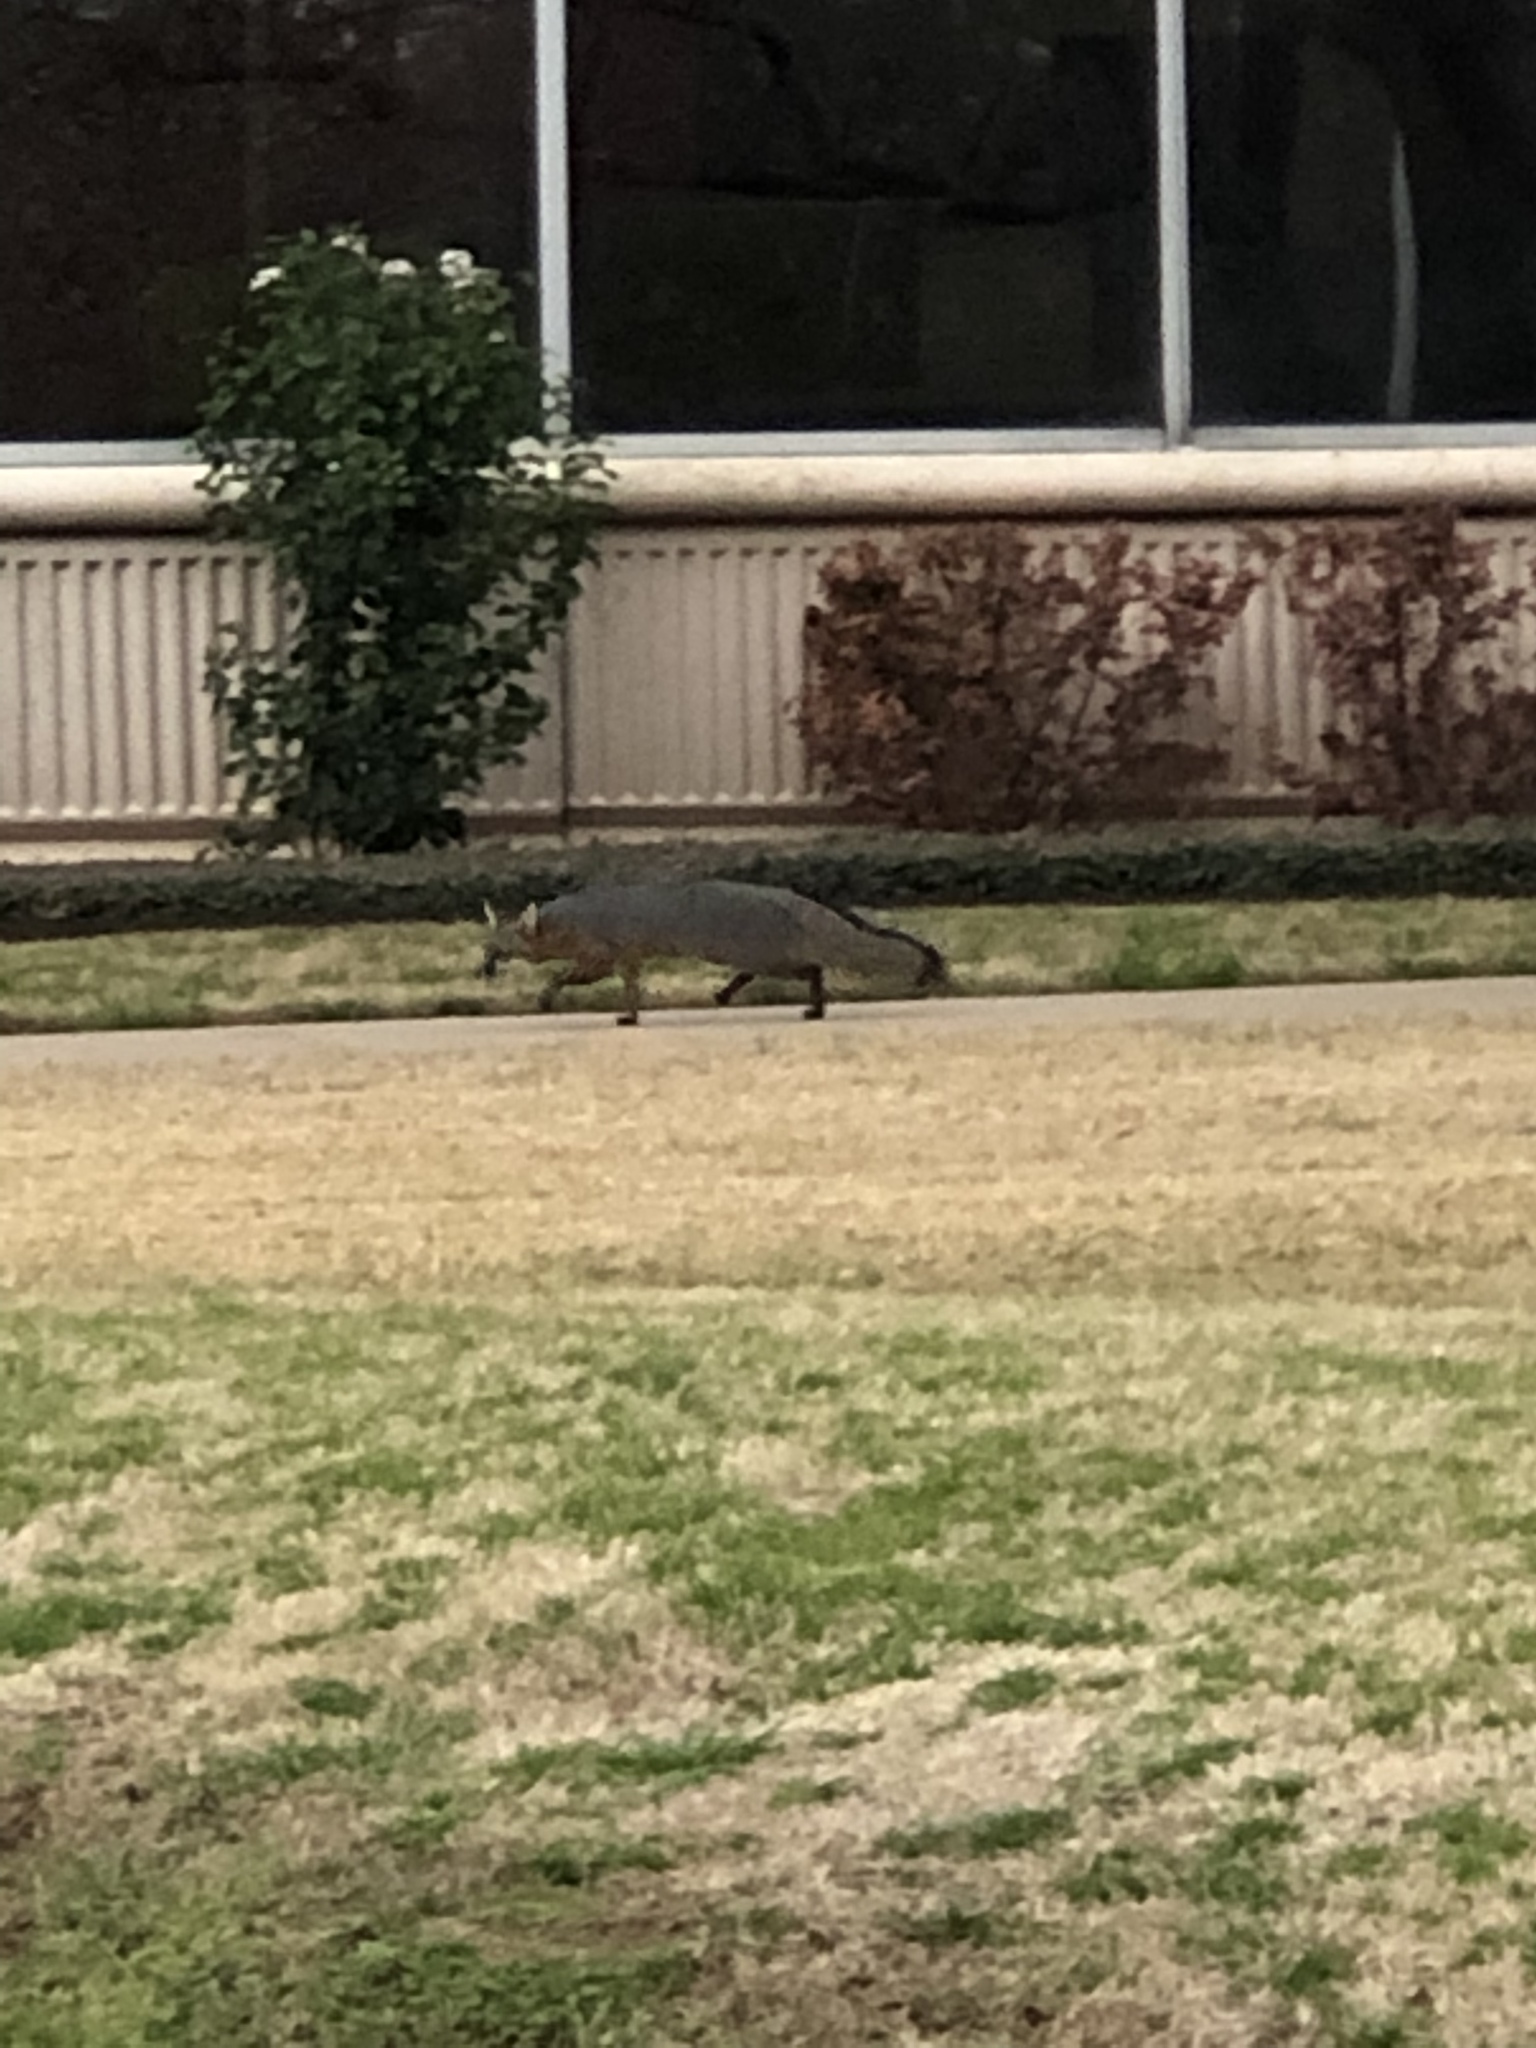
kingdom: Animalia
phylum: Chordata
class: Mammalia
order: Carnivora
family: Canidae
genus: Urocyon
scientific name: Urocyon cinereoargenteus
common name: Gray fox
